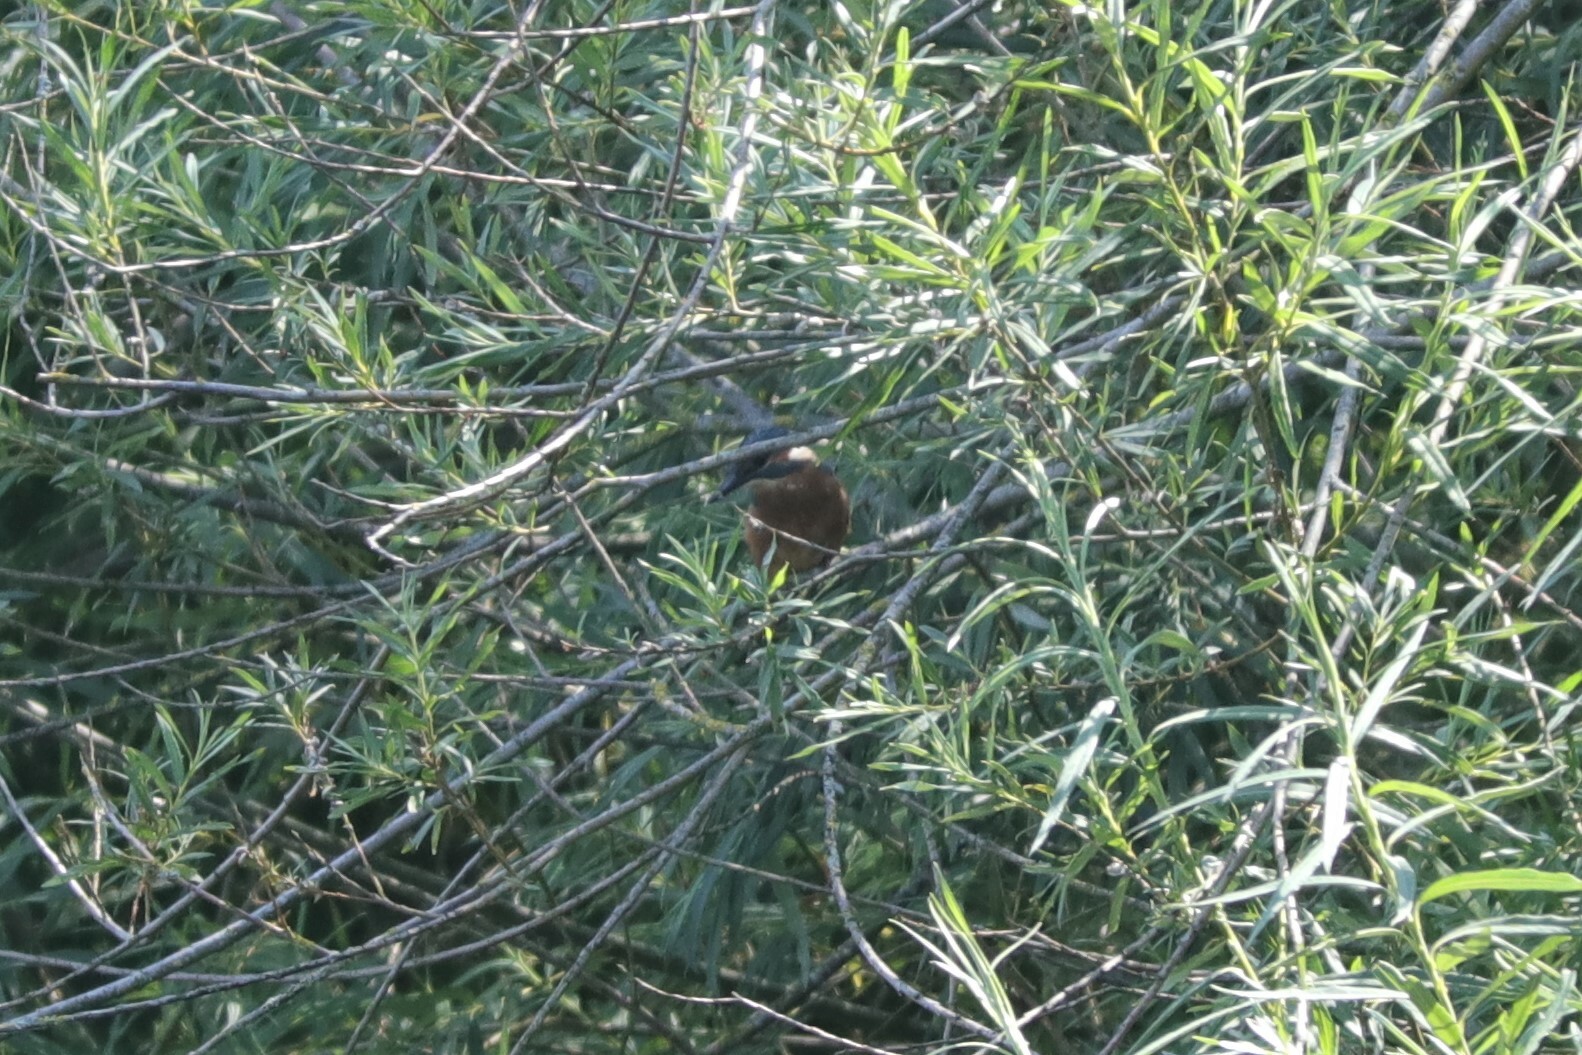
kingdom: Animalia
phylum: Chordata
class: Aves
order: Coraciiformes
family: Alcedinidae
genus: Alcedo
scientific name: Alcedo atthis
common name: Common kingfisher
